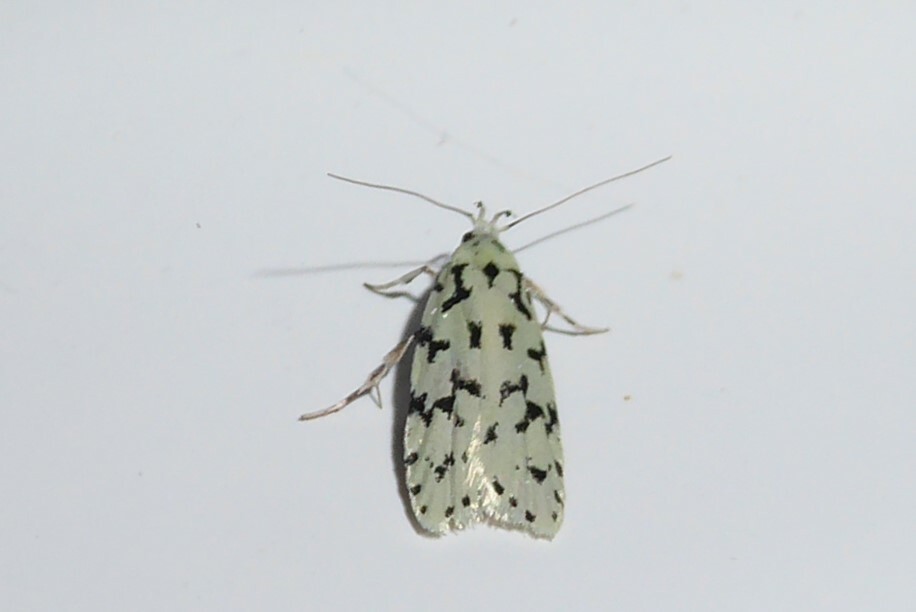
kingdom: Animalia
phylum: Arthropoda
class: Insecta
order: Lepidoptera
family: Oecophoridae
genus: Izatha
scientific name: Izatha huttoni
